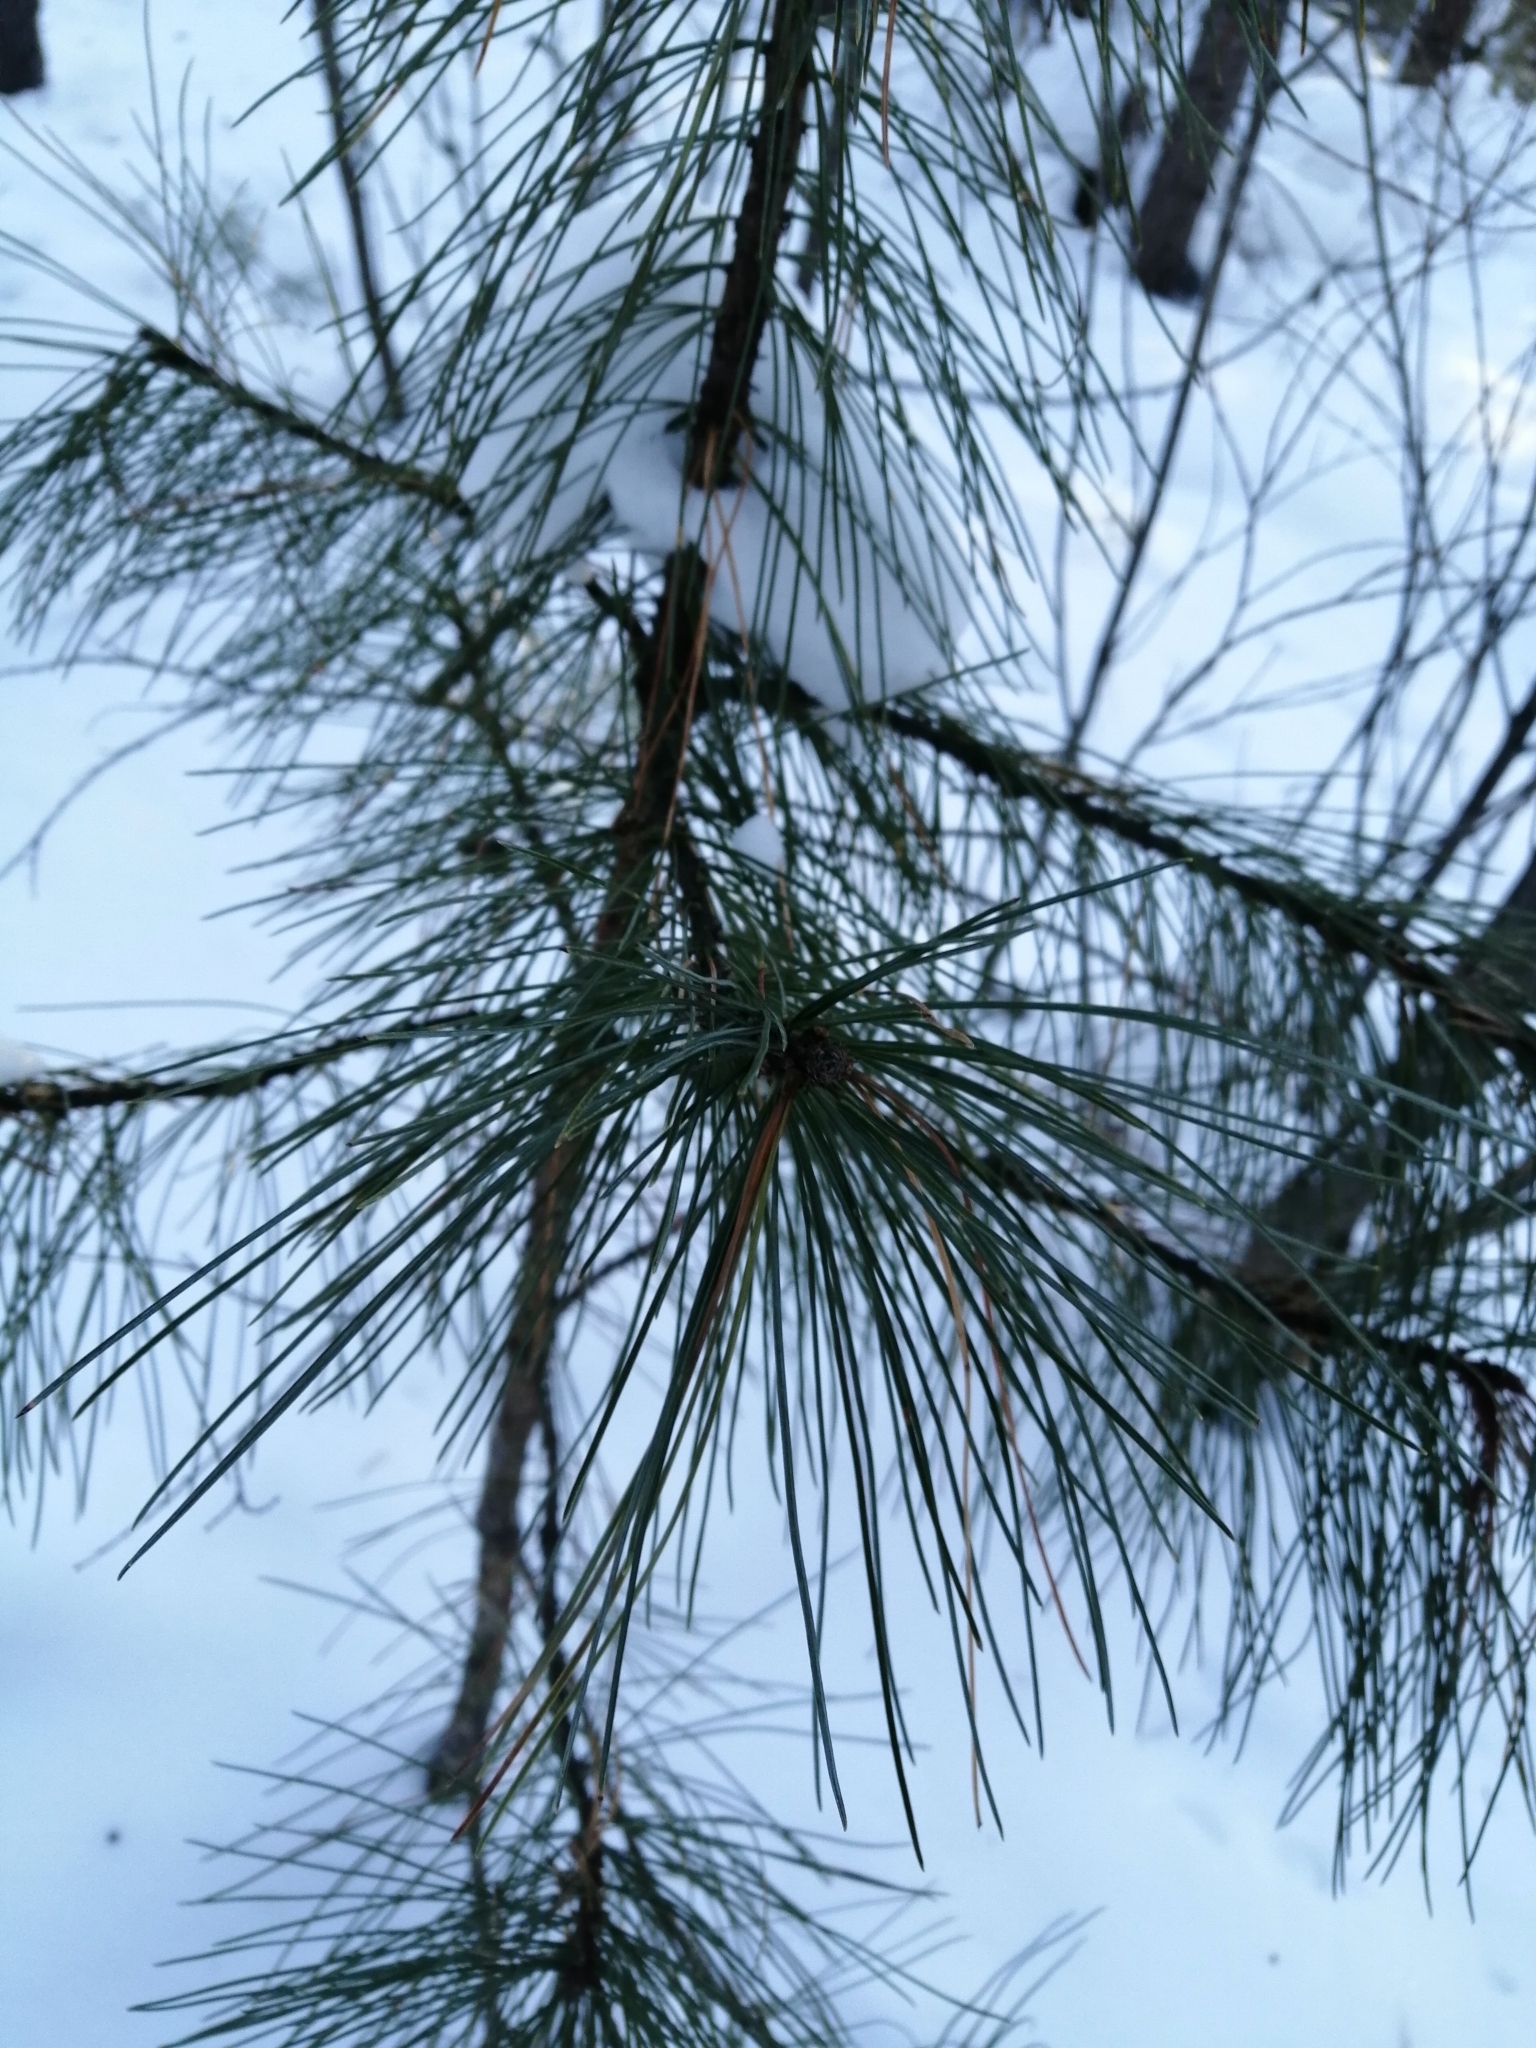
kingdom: Plantae
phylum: Tracheophyta
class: Pinopsida
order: Pinales
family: Pinaceae
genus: Pinus
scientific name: Pinus sibirica
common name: Siberian pine
